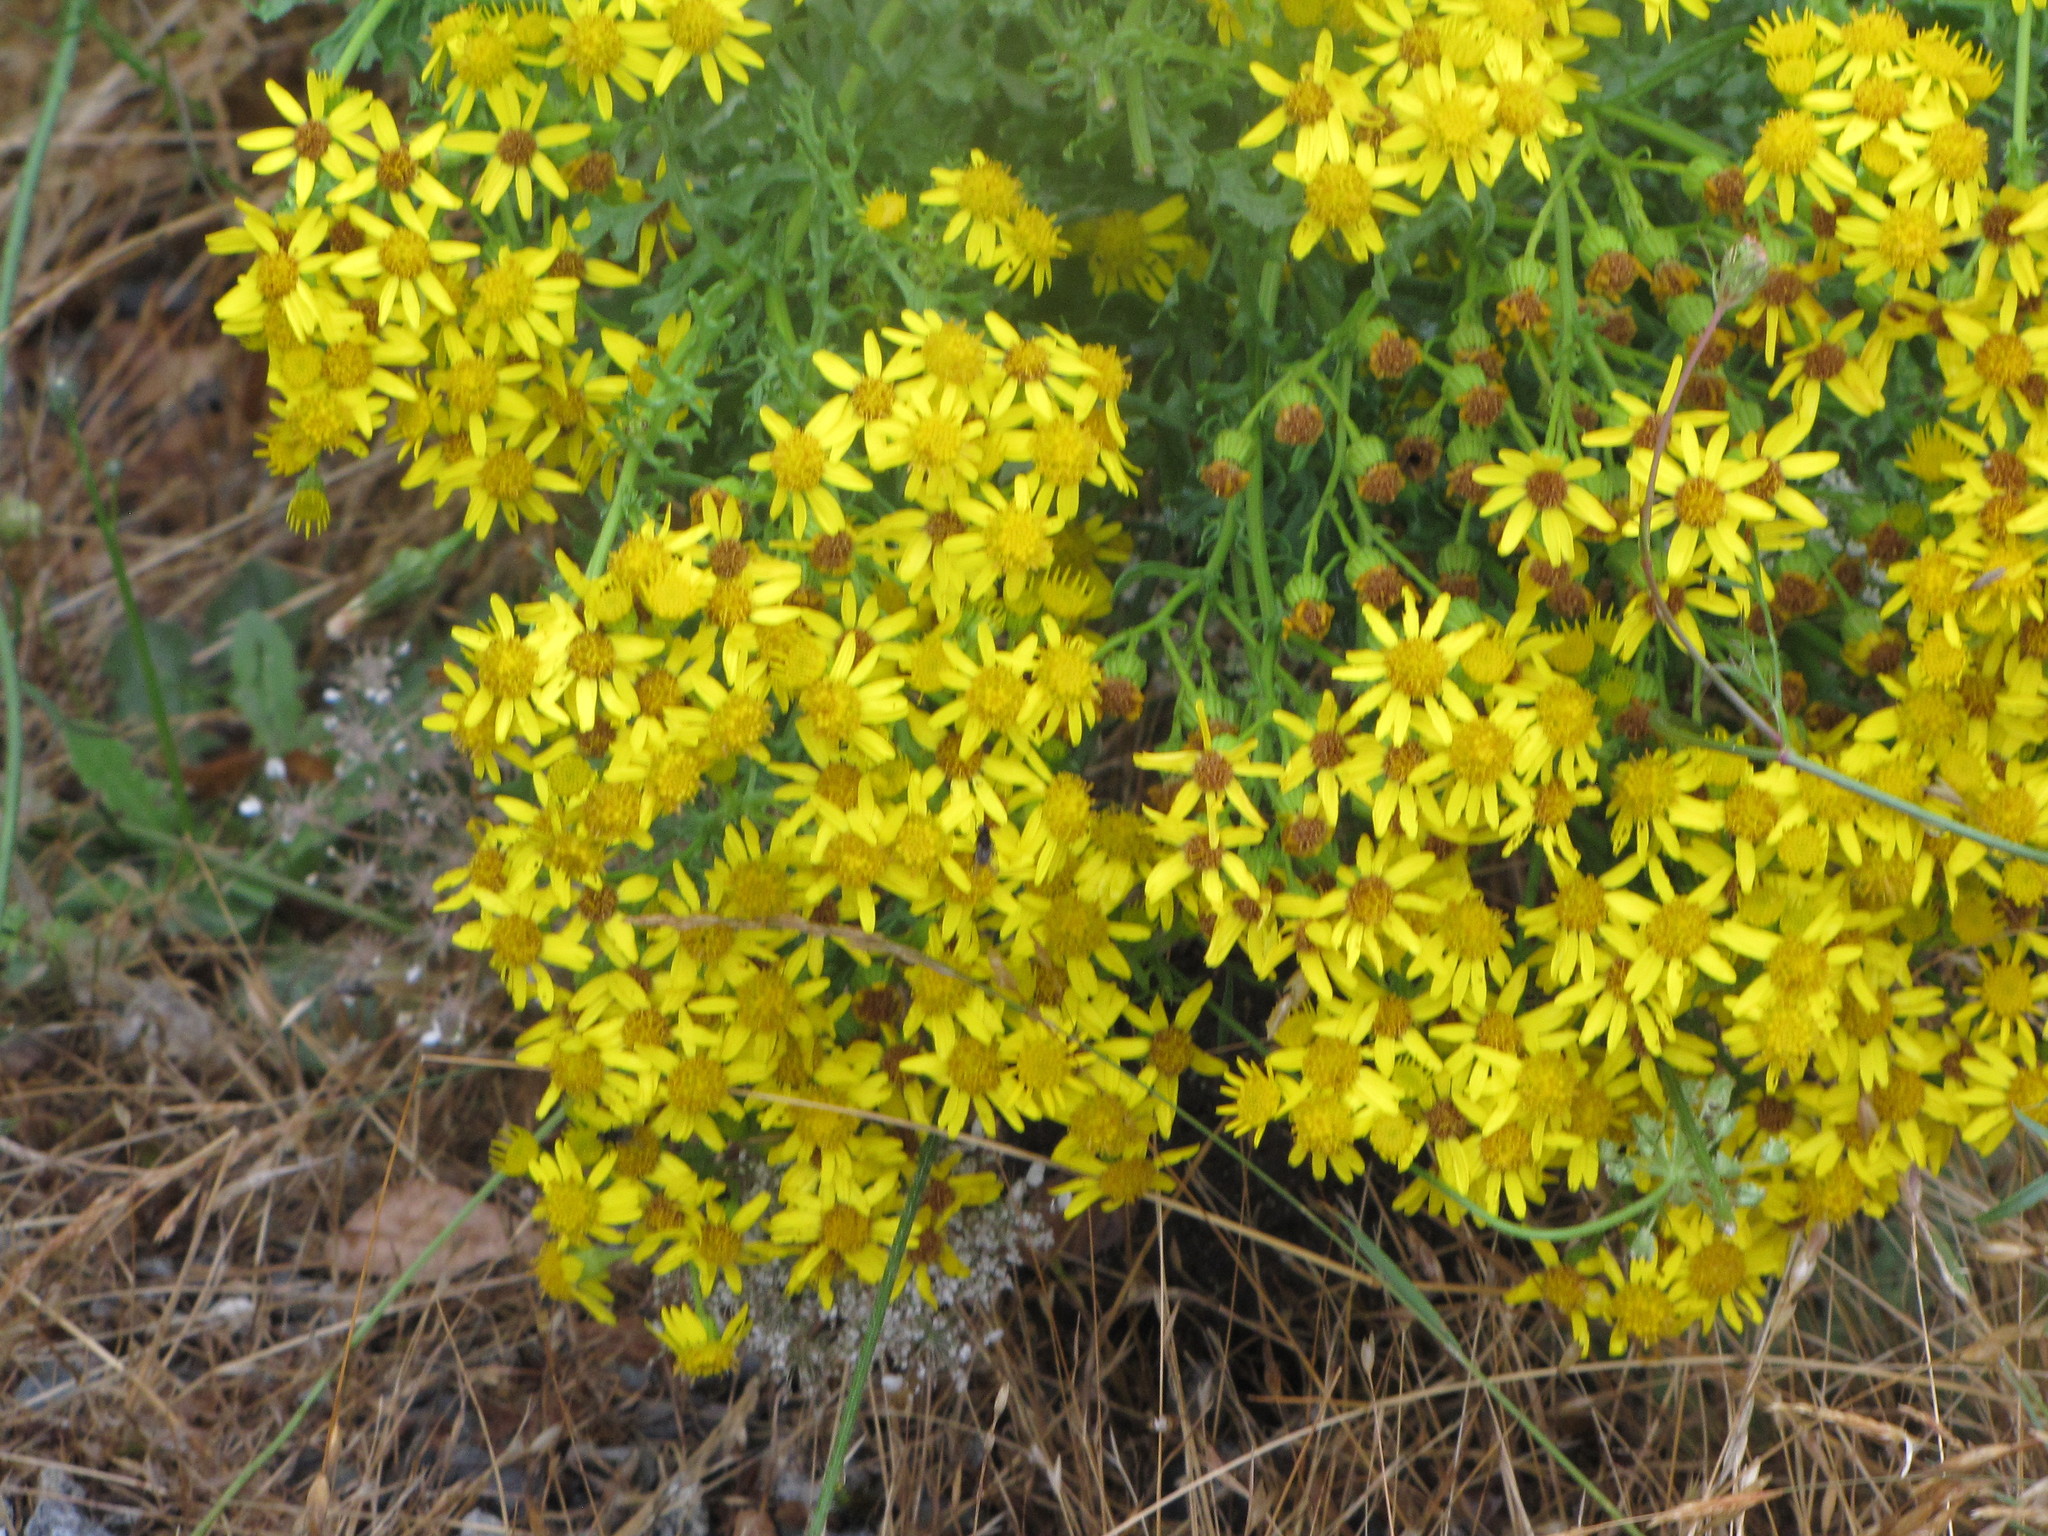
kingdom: Plantae
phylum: Tracheophyta
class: Magnoliopsida
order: Asterales
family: Asteraceae
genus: Jacobaea
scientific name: Jacobaea vulgaris
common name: Stinking willie
